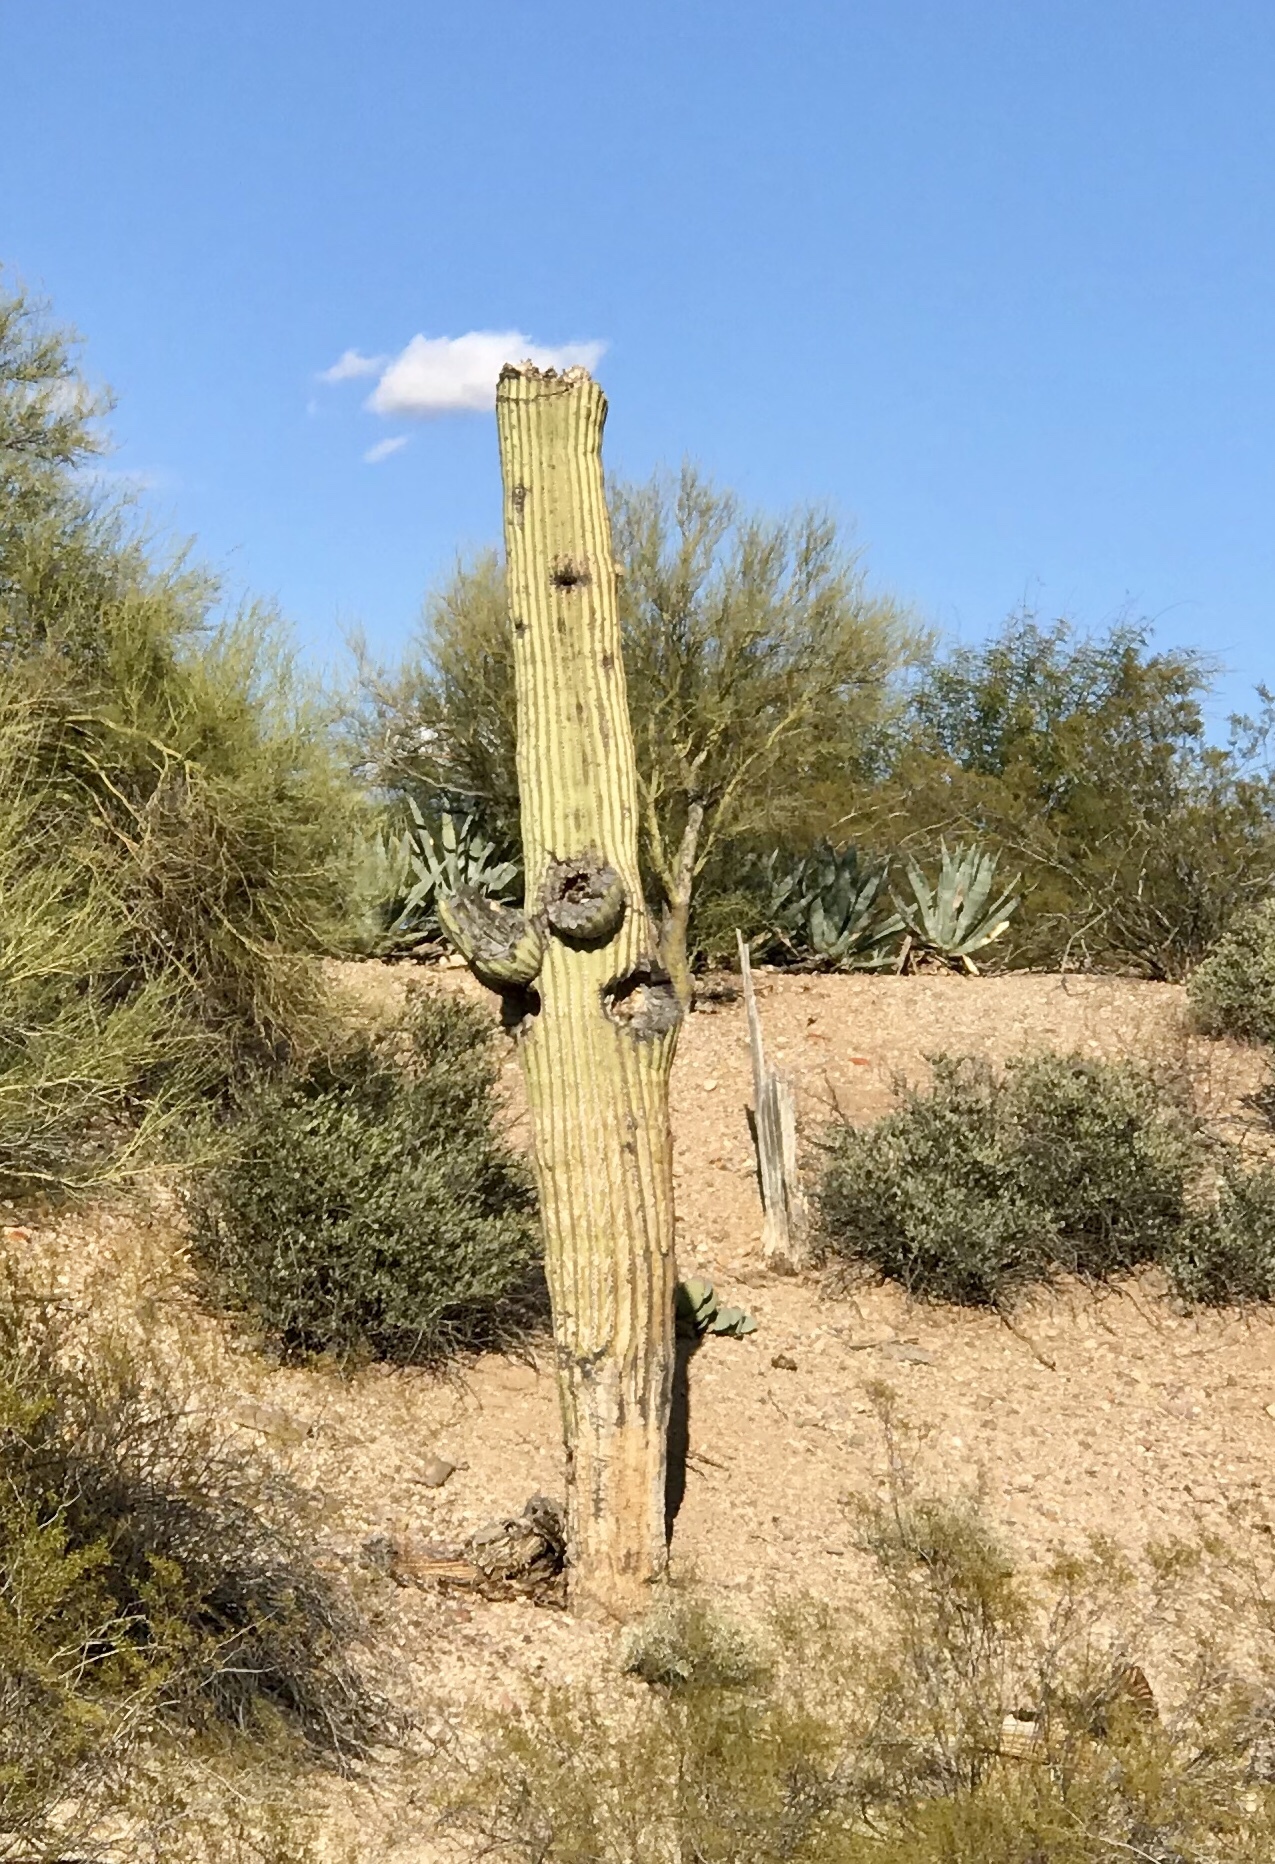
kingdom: Plantae
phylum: Tracheophyta
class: Magnoliopsida
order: Caryophyllales
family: Cactaceae
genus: Carnegiea
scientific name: Carnegiea gigantea
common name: Saguaro
